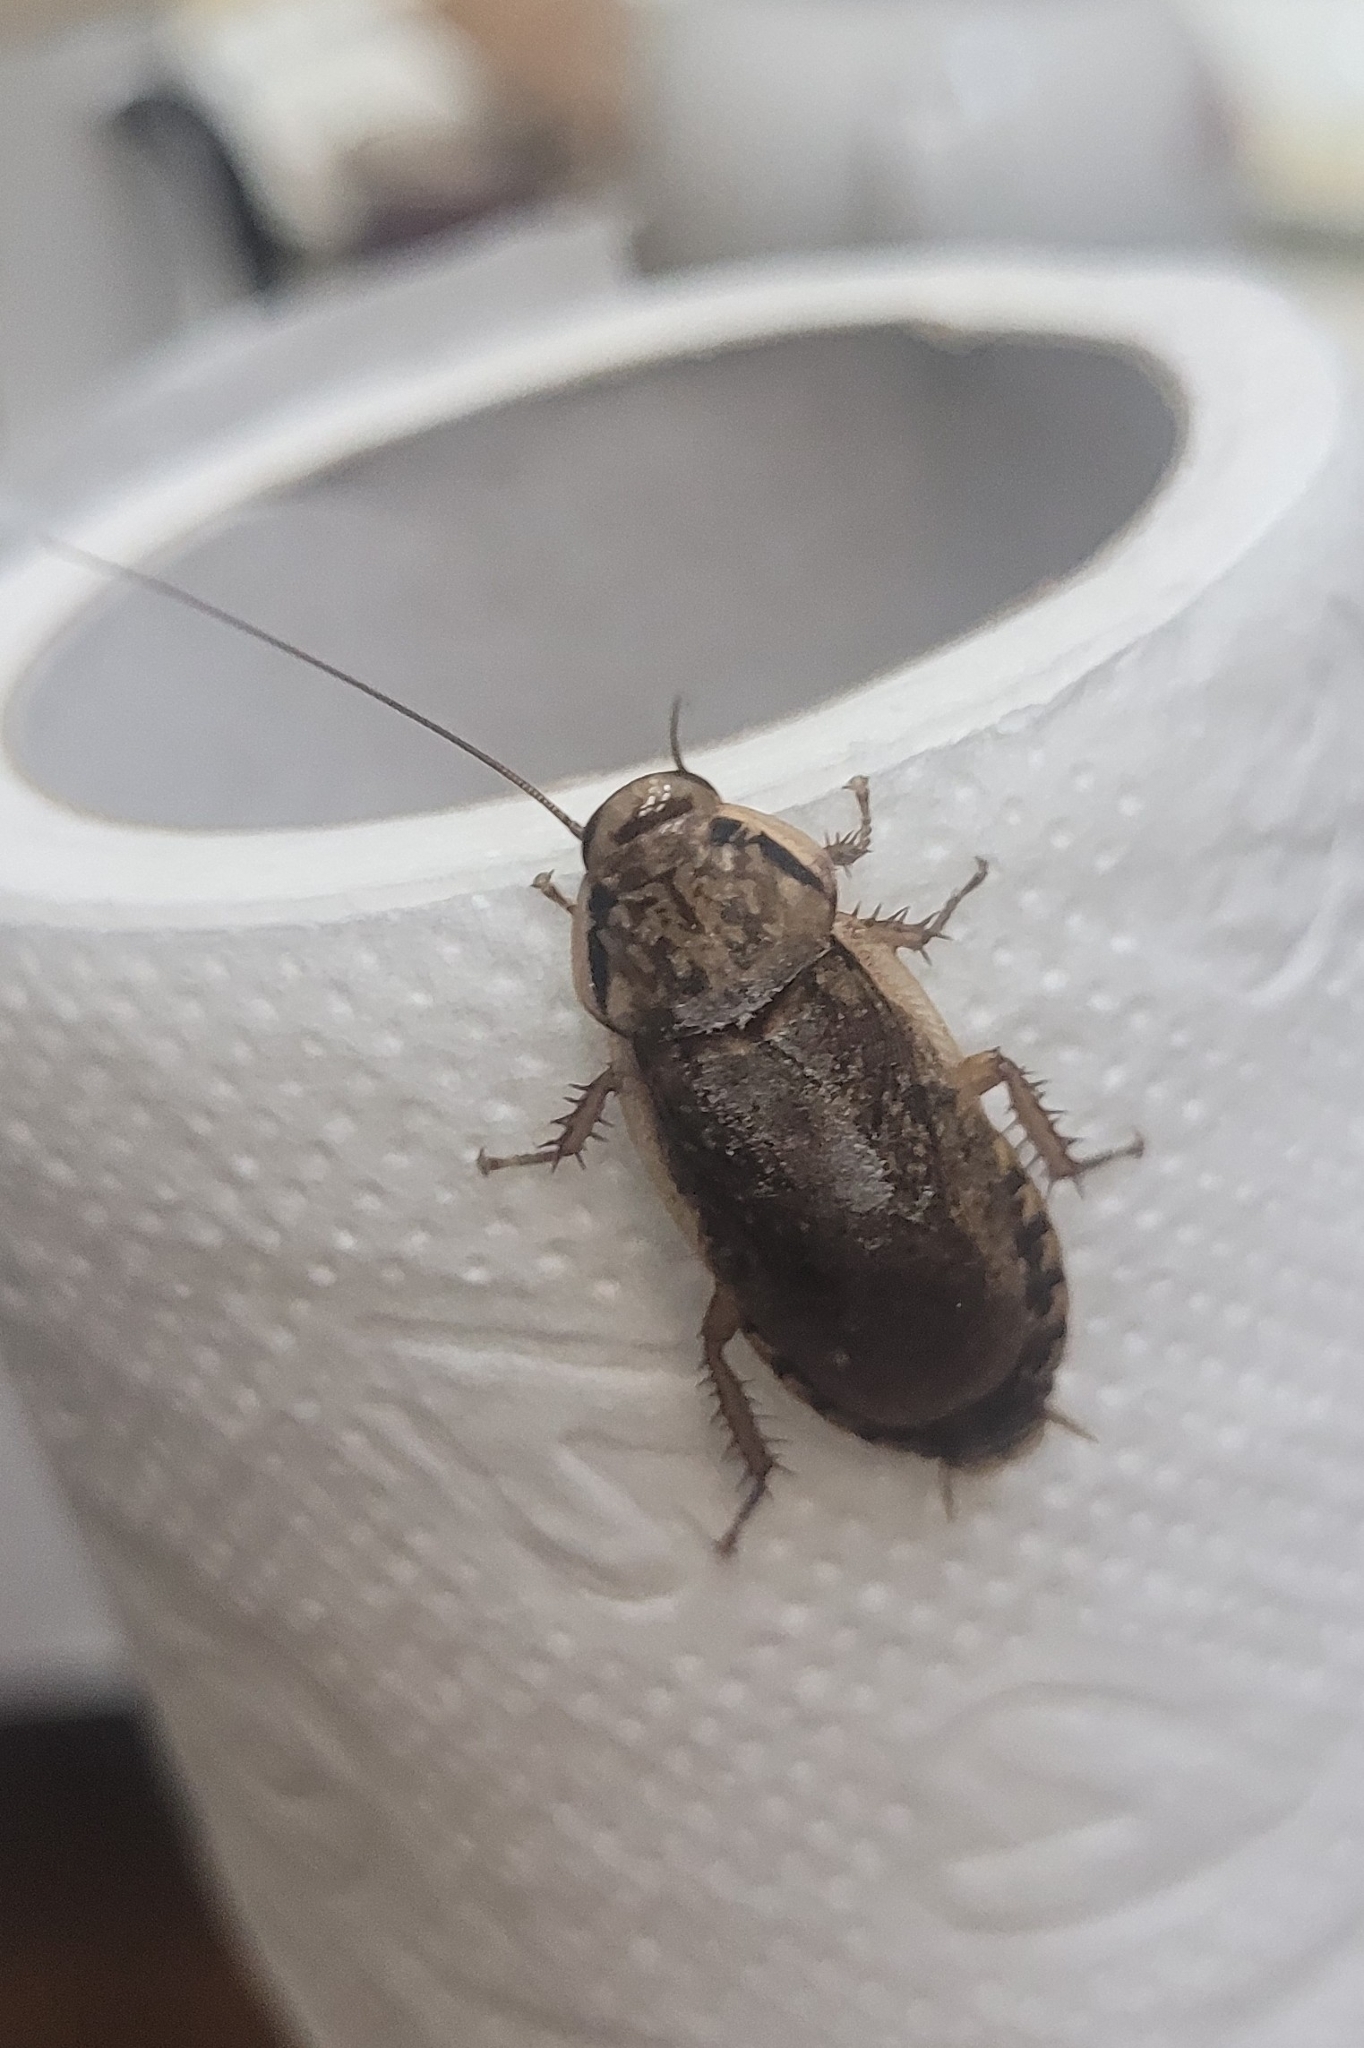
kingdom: Animalia
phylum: Arthropoda
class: Insecta
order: Blattodea
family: Blaberidae
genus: Nauphoeta
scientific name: Nauphoeta cinerea
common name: Lobster cockroach
